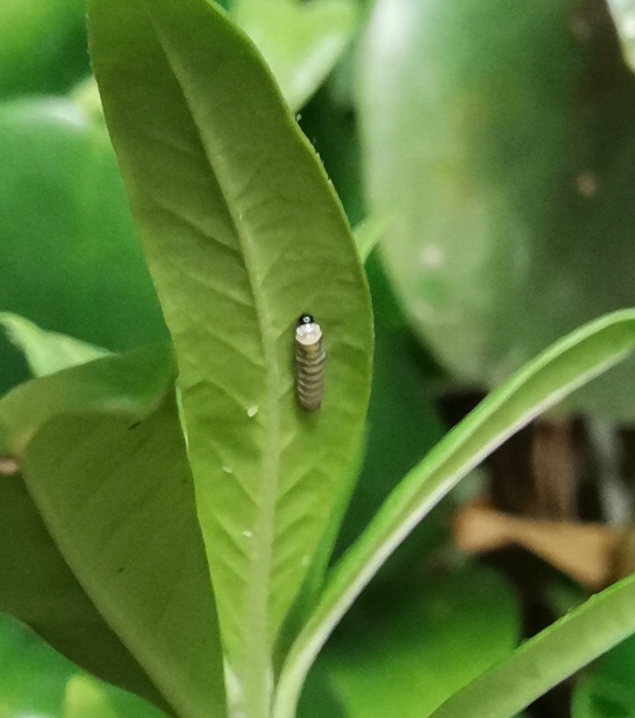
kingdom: Animalia
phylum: Arthropoda
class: Insecta
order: Lepidoptera
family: Nymphalidae
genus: Danaus
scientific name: Danaus plexippus
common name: Monarch
